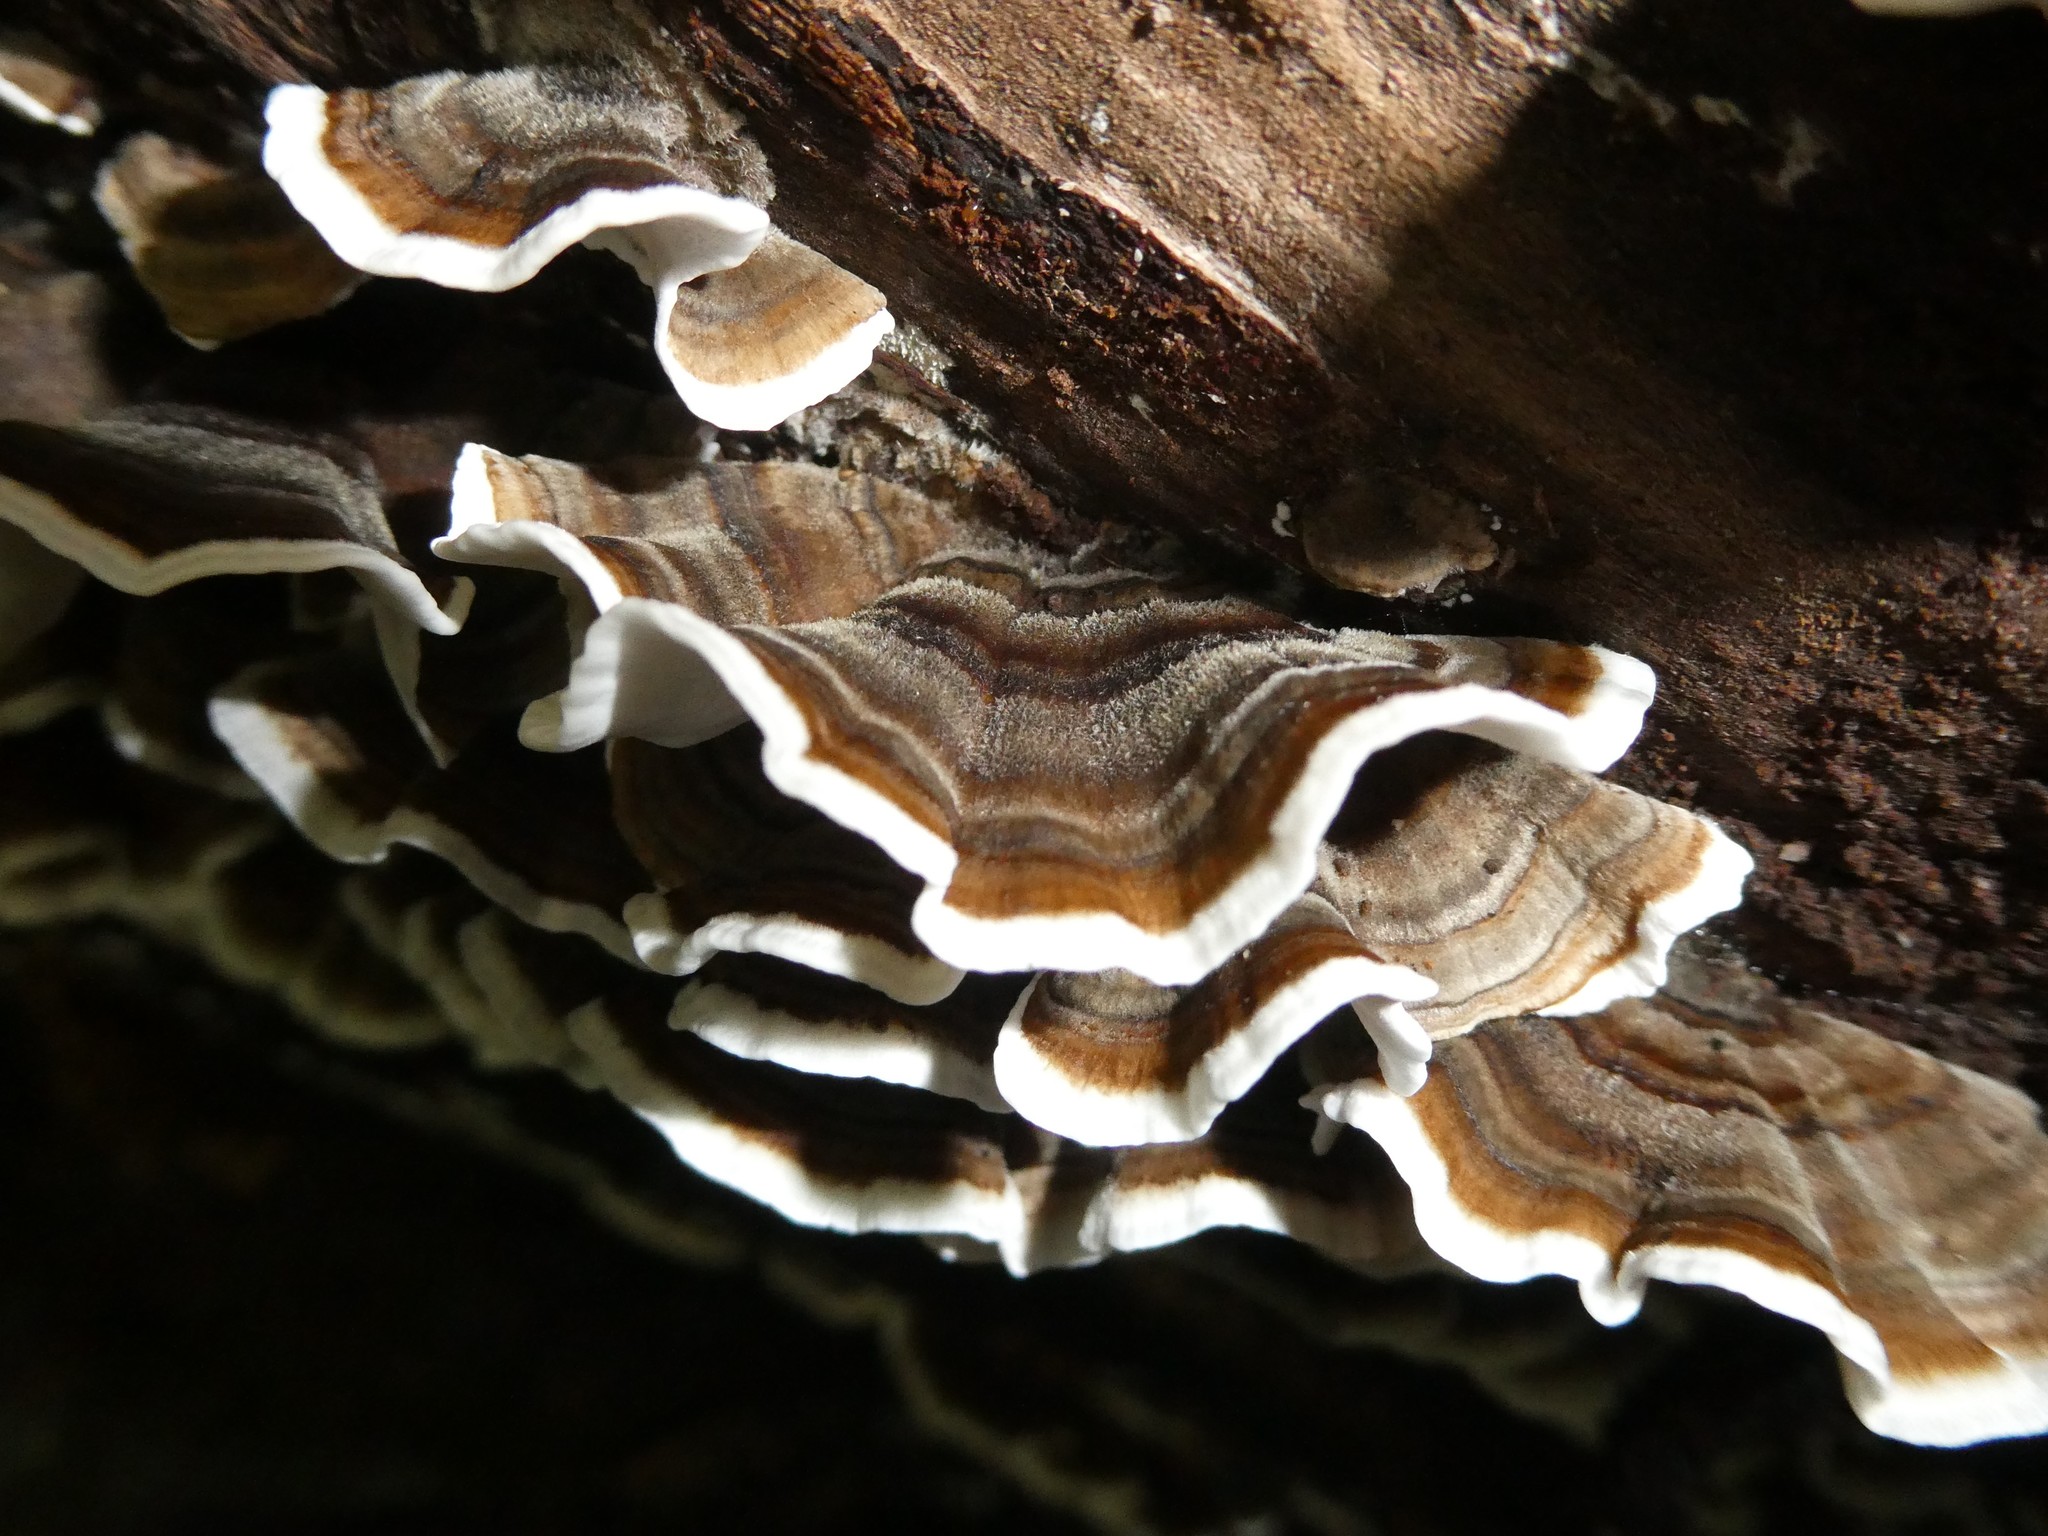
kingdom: Fungi
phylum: Basidiomycota
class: Agaricomycetes
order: Polyporales
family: Polyporaceae
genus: Trametes
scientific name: Trametes versicolor
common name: Turkeytail
